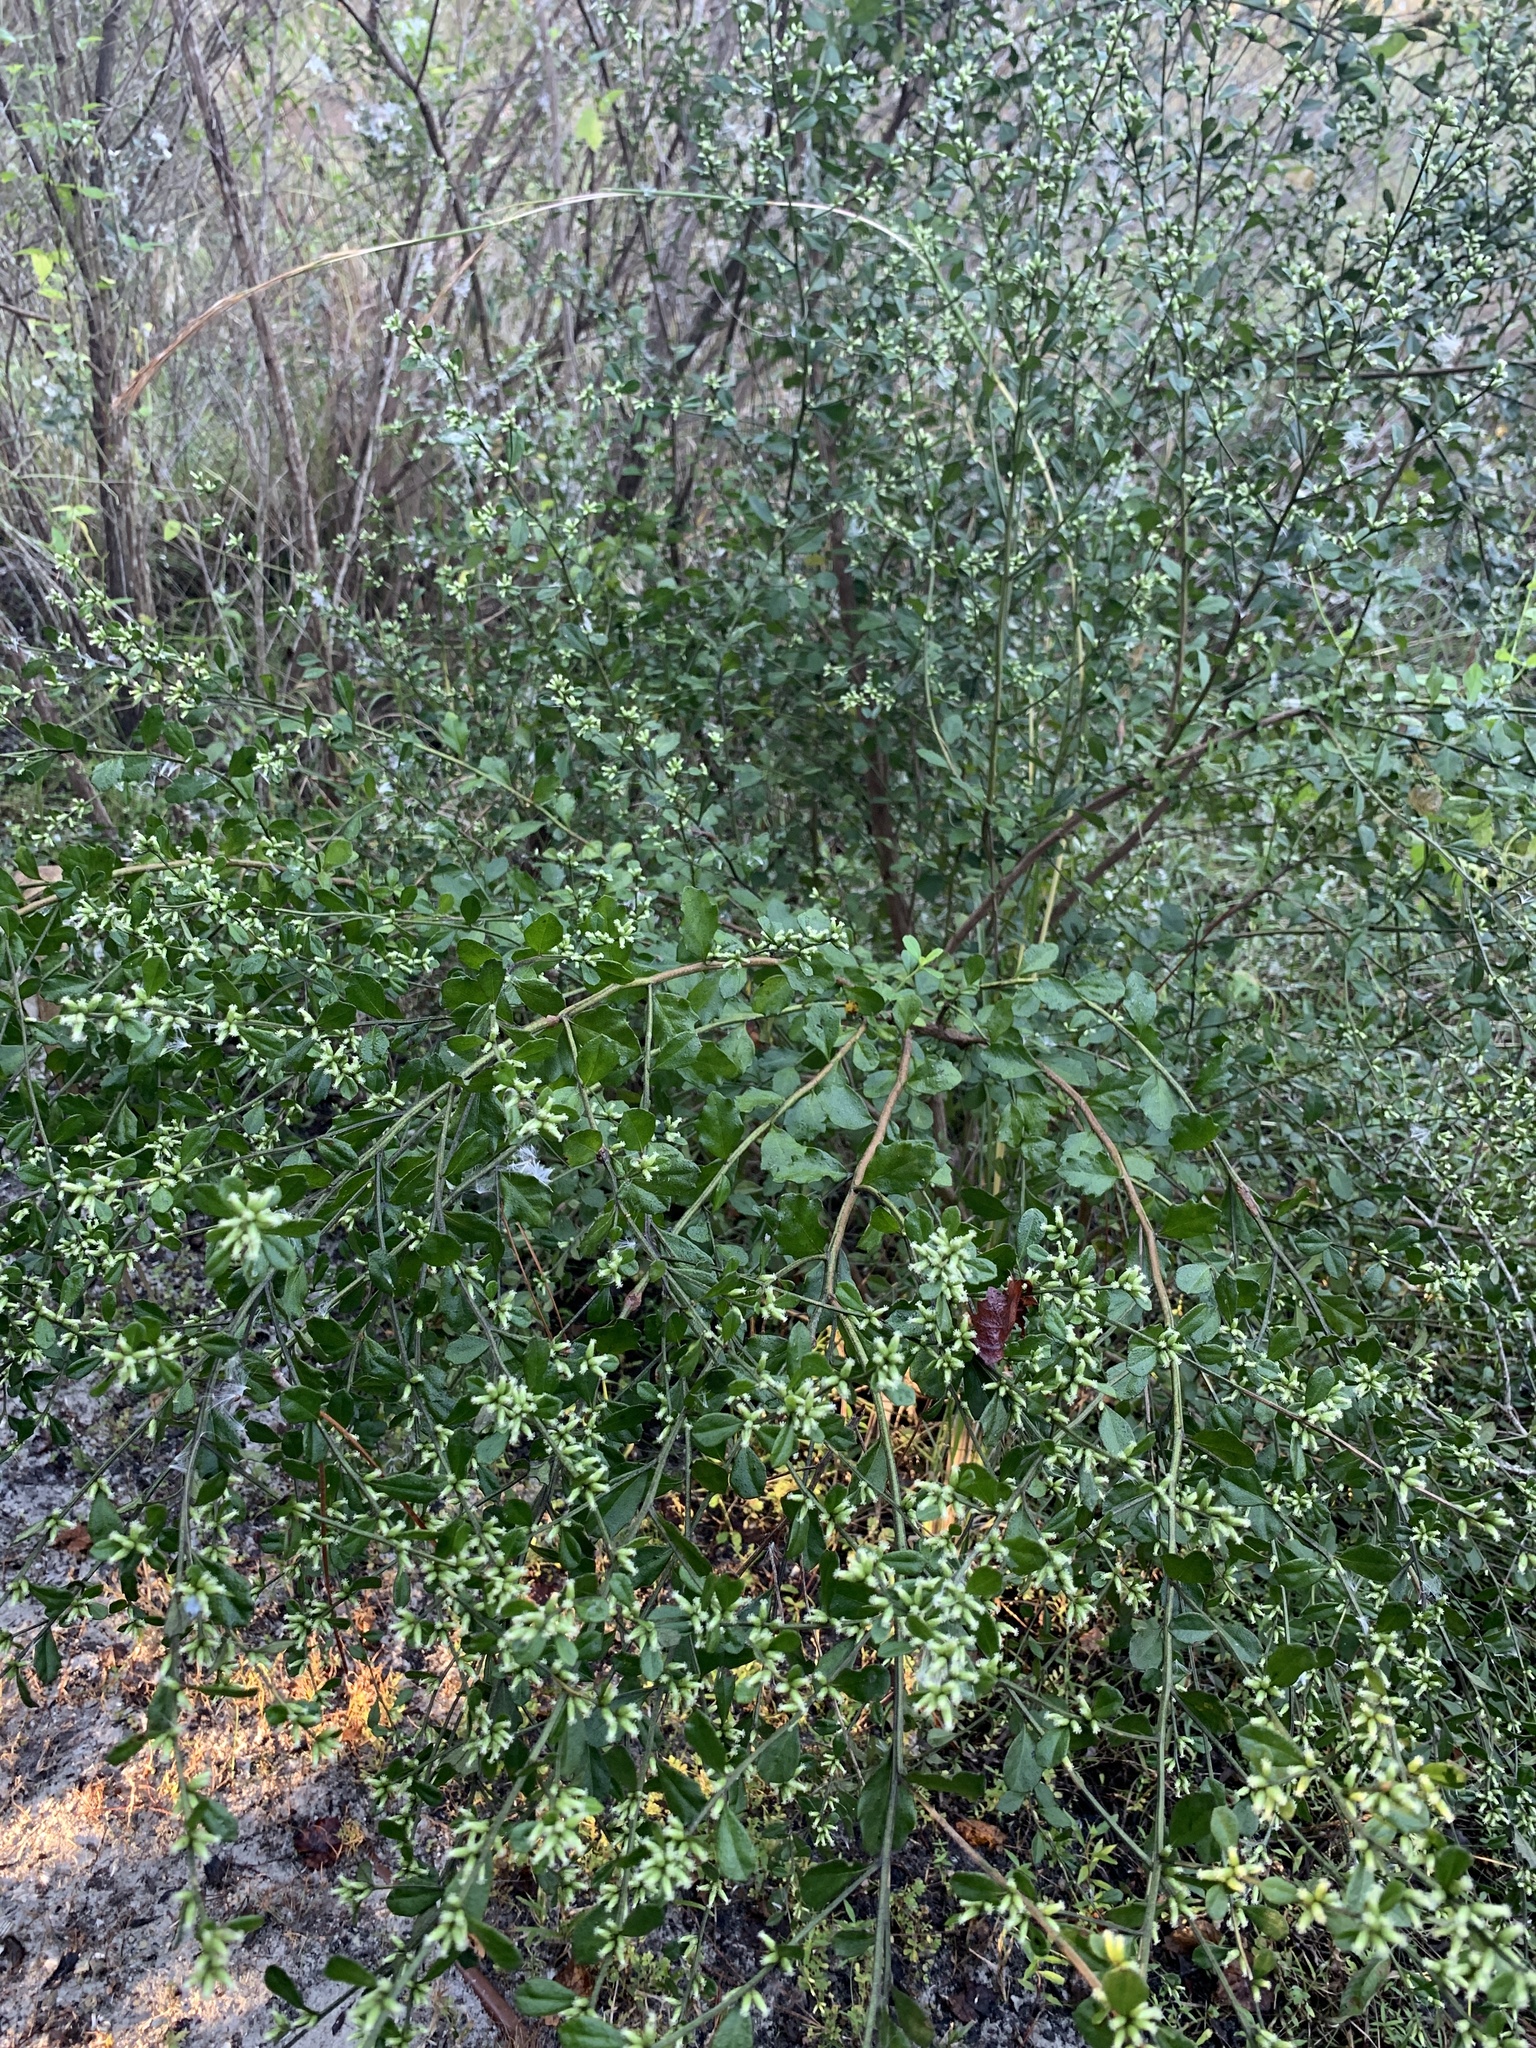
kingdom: Plantae
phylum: Tracheophyta
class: Magnoliopsida
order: Asterales
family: Asteraceae
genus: Baccharis
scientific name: Baccharis glomeruliflora
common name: Silverling groundsel bush
